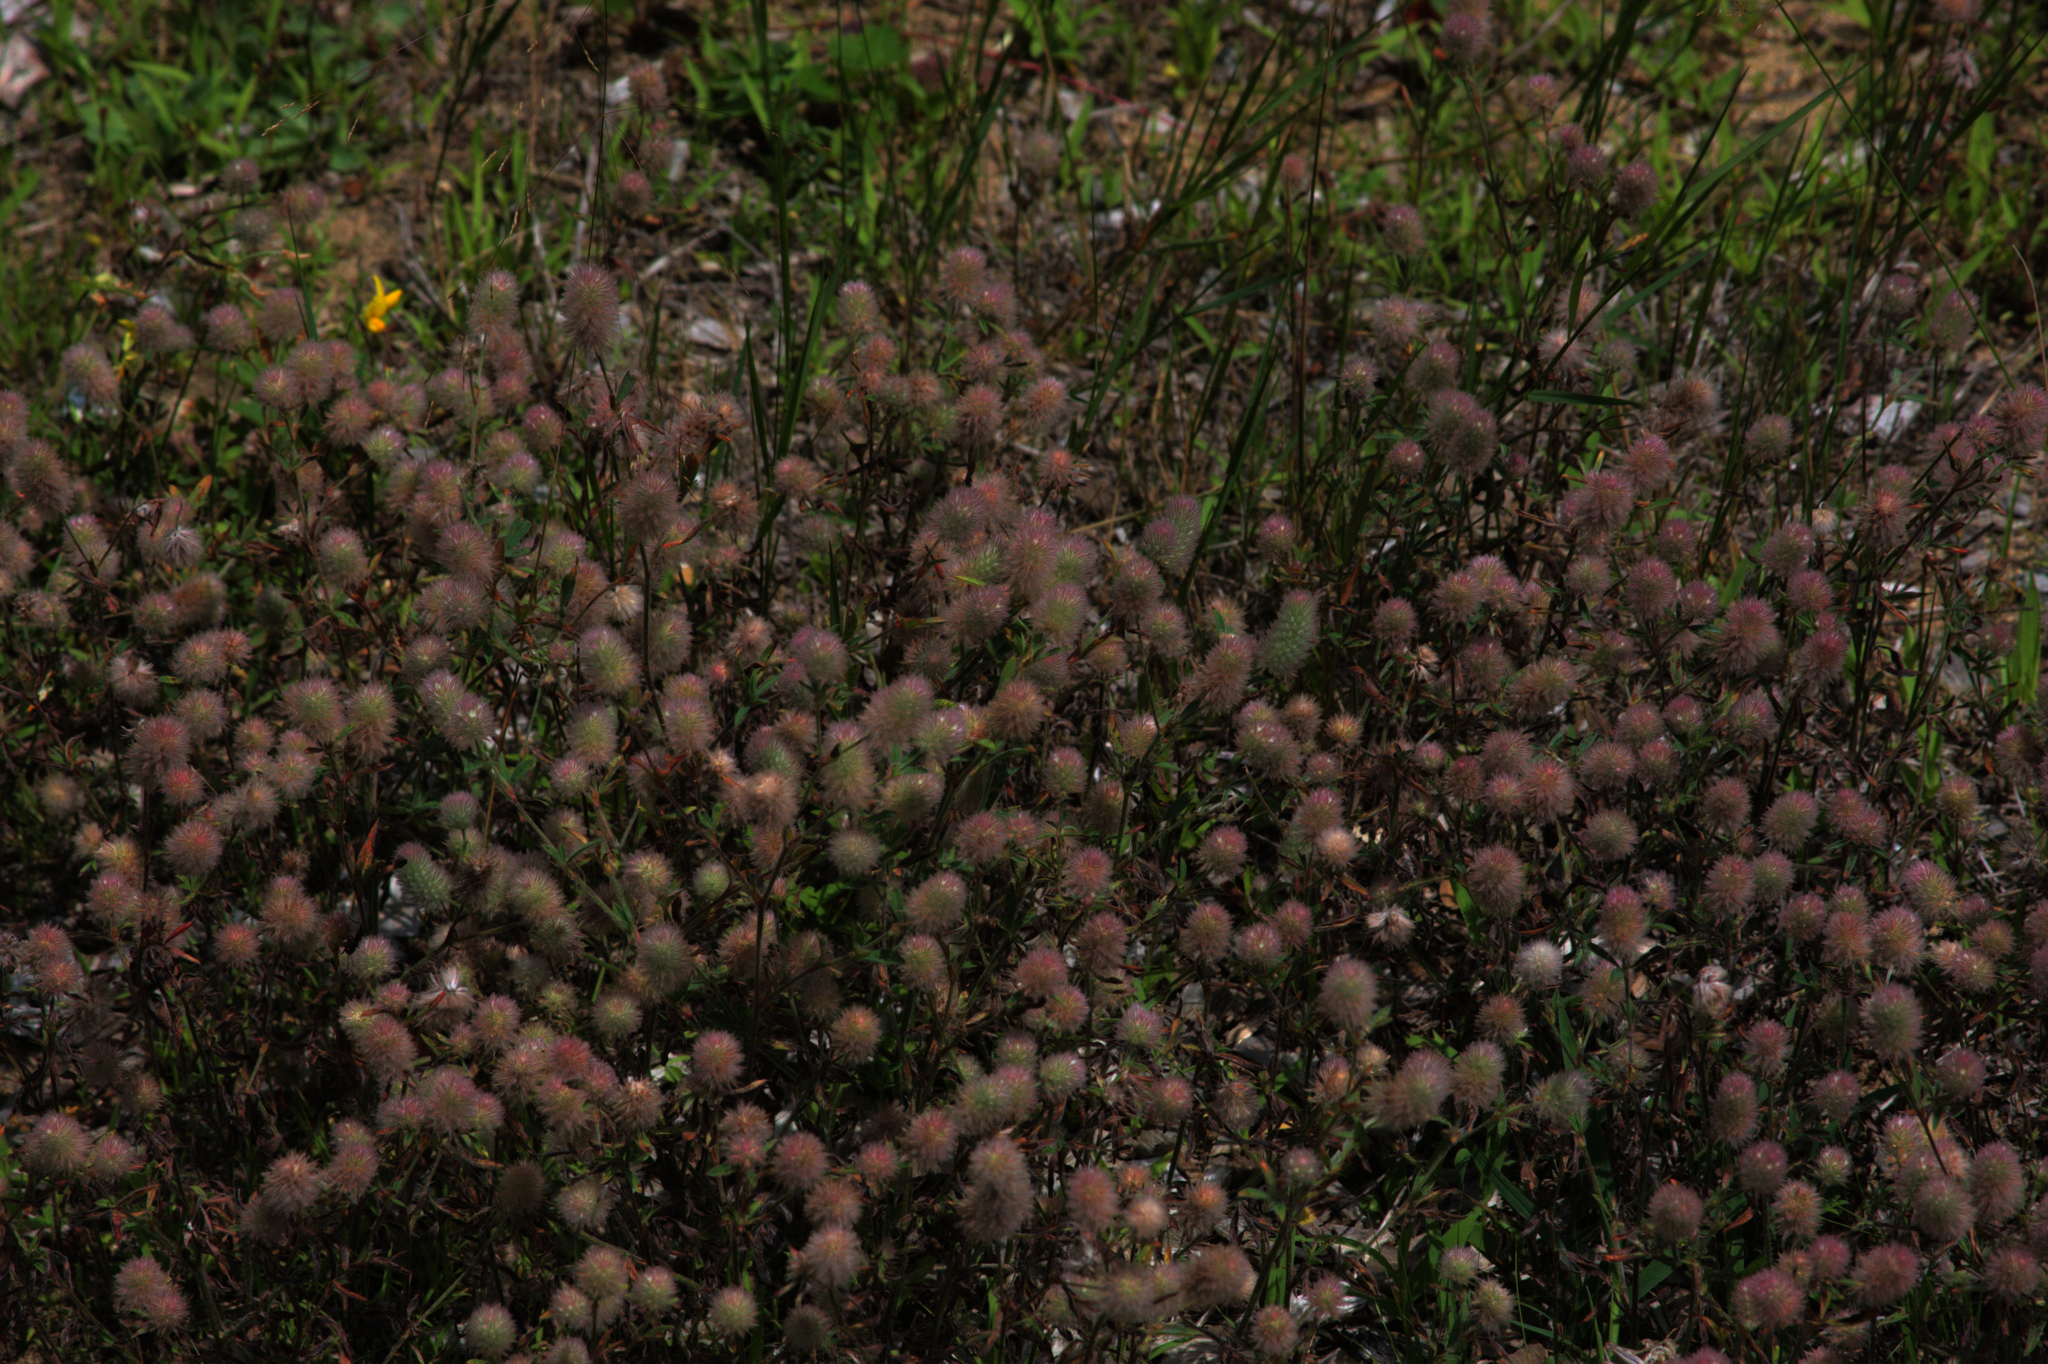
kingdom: Plantae
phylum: Tracheophyta
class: Magnoliopsida
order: Fabales
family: Fabaceae
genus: Trifolium
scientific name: Trifolium arvense
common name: Hare's-foot clover
